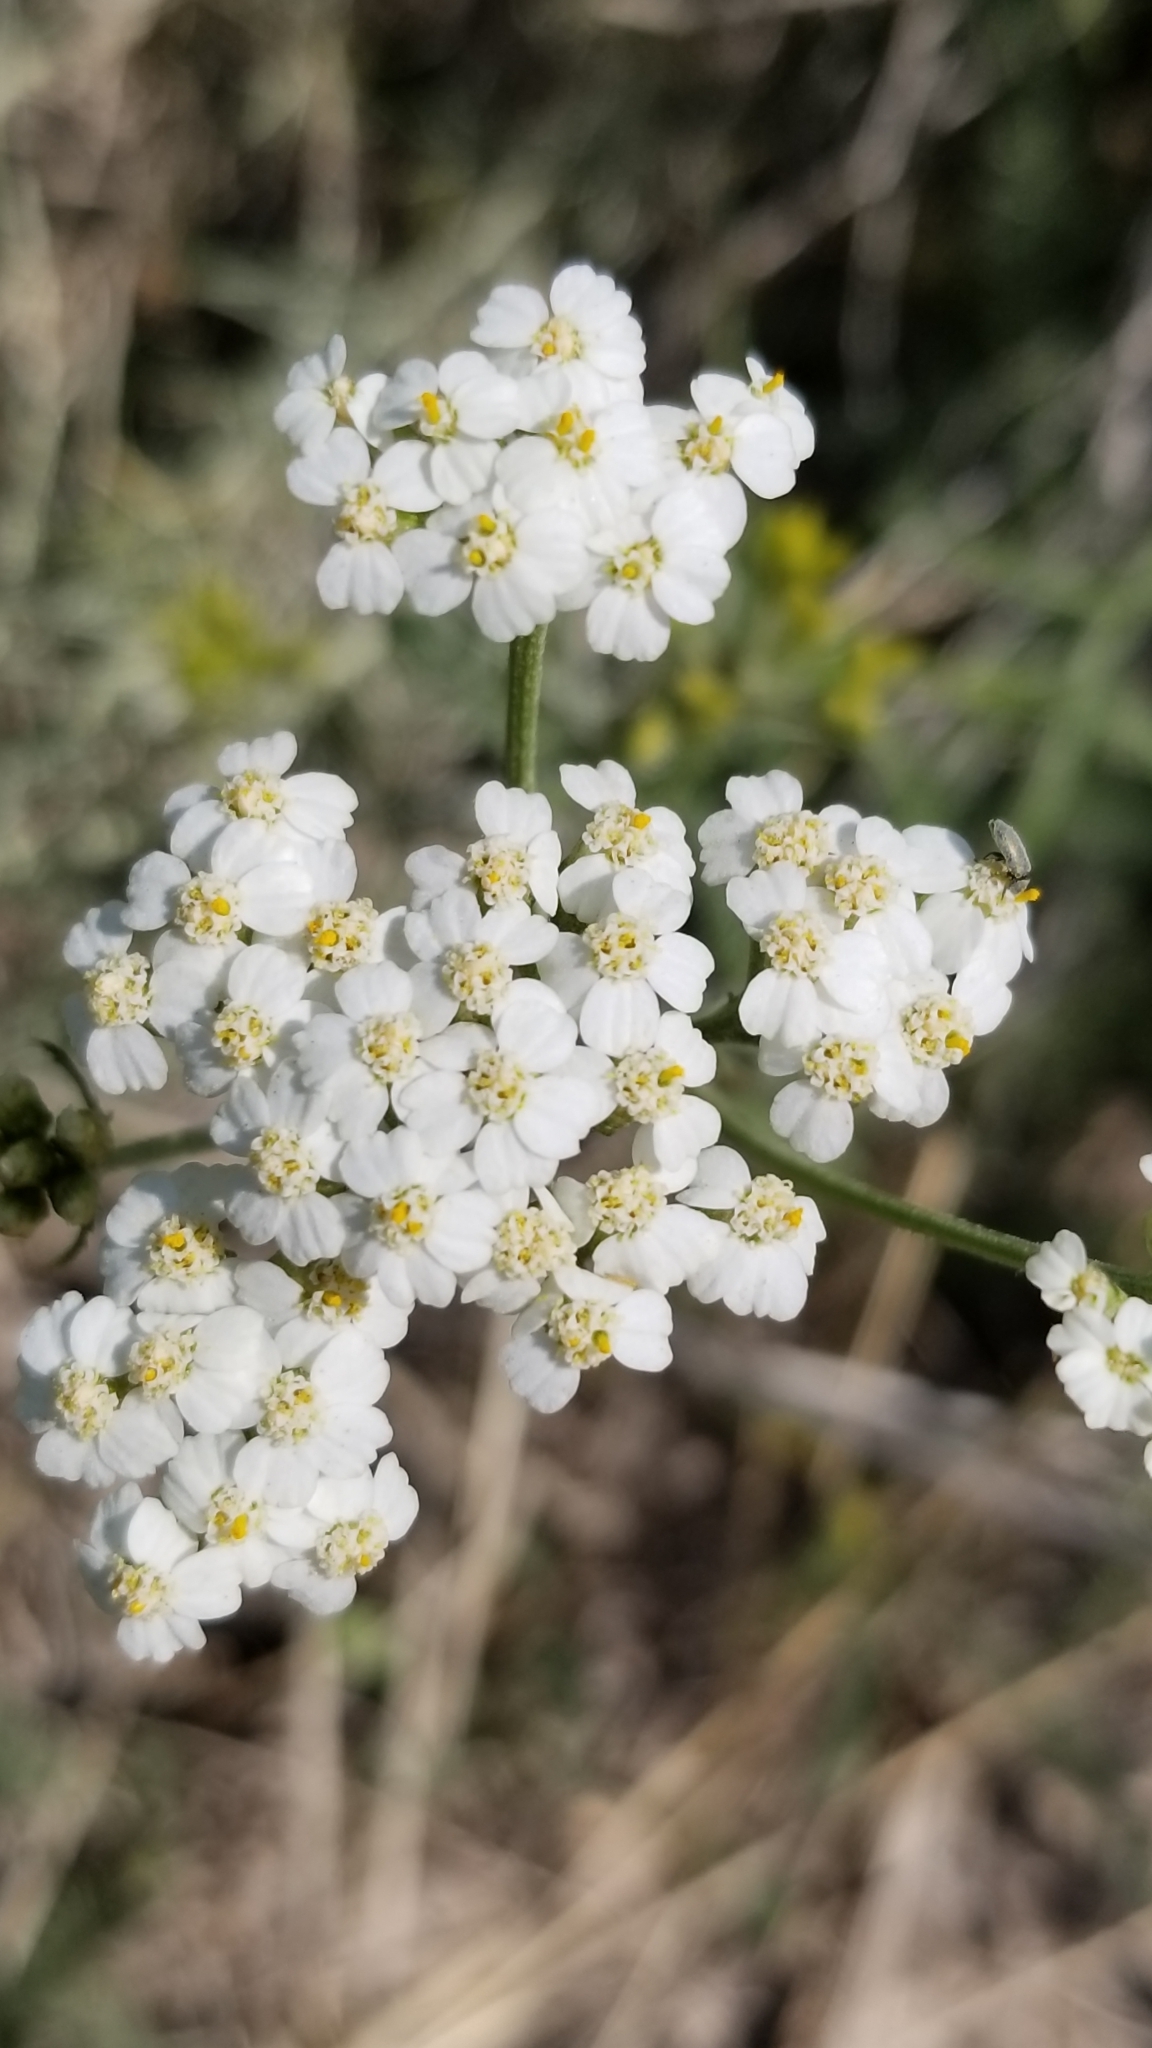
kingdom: Plantae
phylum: Tracheophyta
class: Magnoliopsida
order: Asterales
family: Asteraceae
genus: Achillea
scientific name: Achillea millefolium
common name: Yarrow
